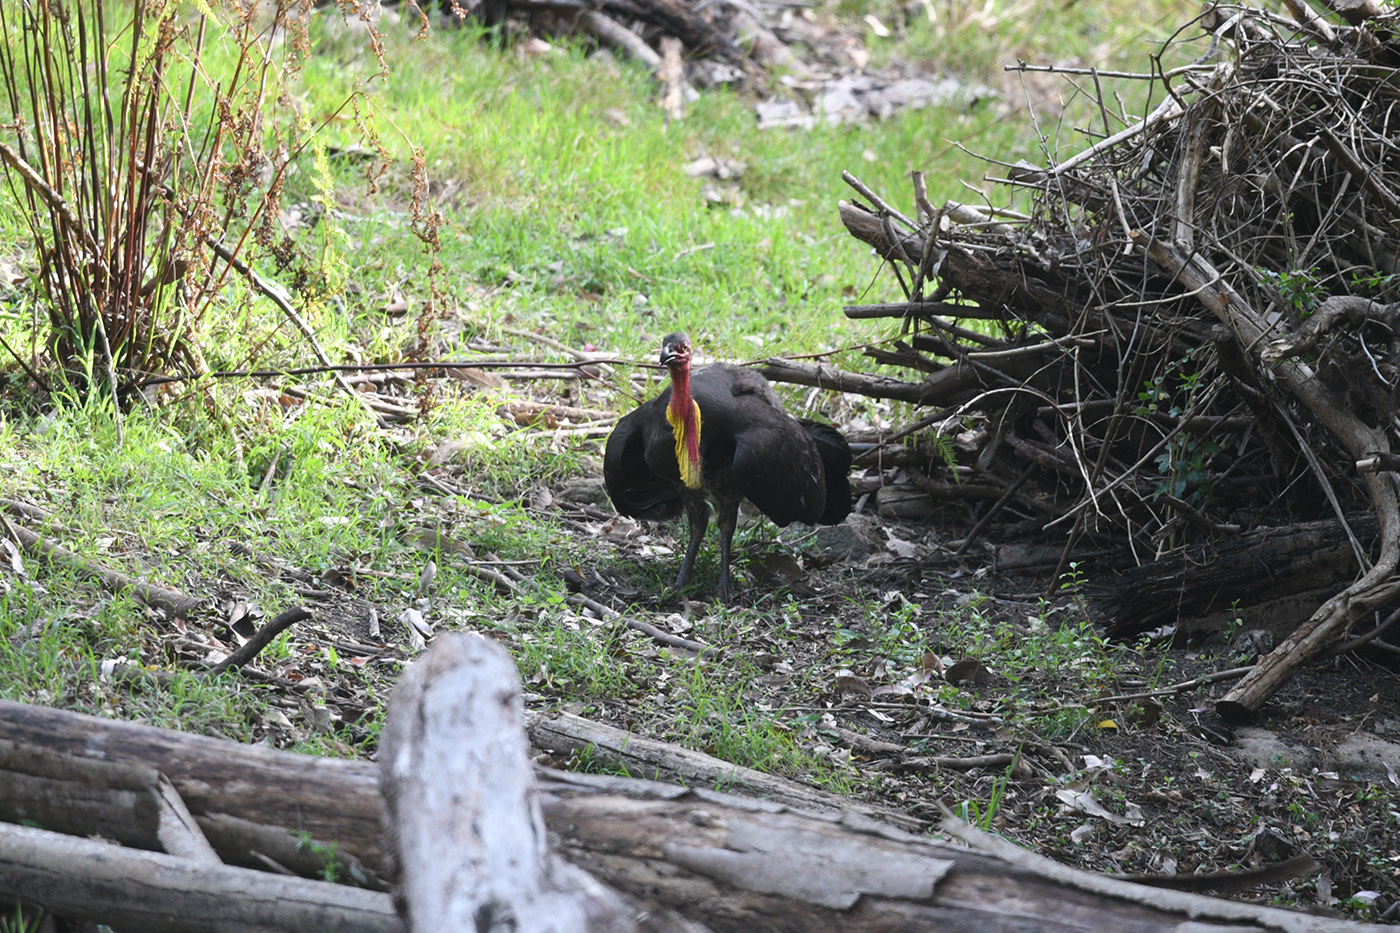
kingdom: Animalia
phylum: Chordata
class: Aves
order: Galliformes
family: Megapodiidae
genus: Alectura
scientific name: Alectura lathami
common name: Australian brushturkey
